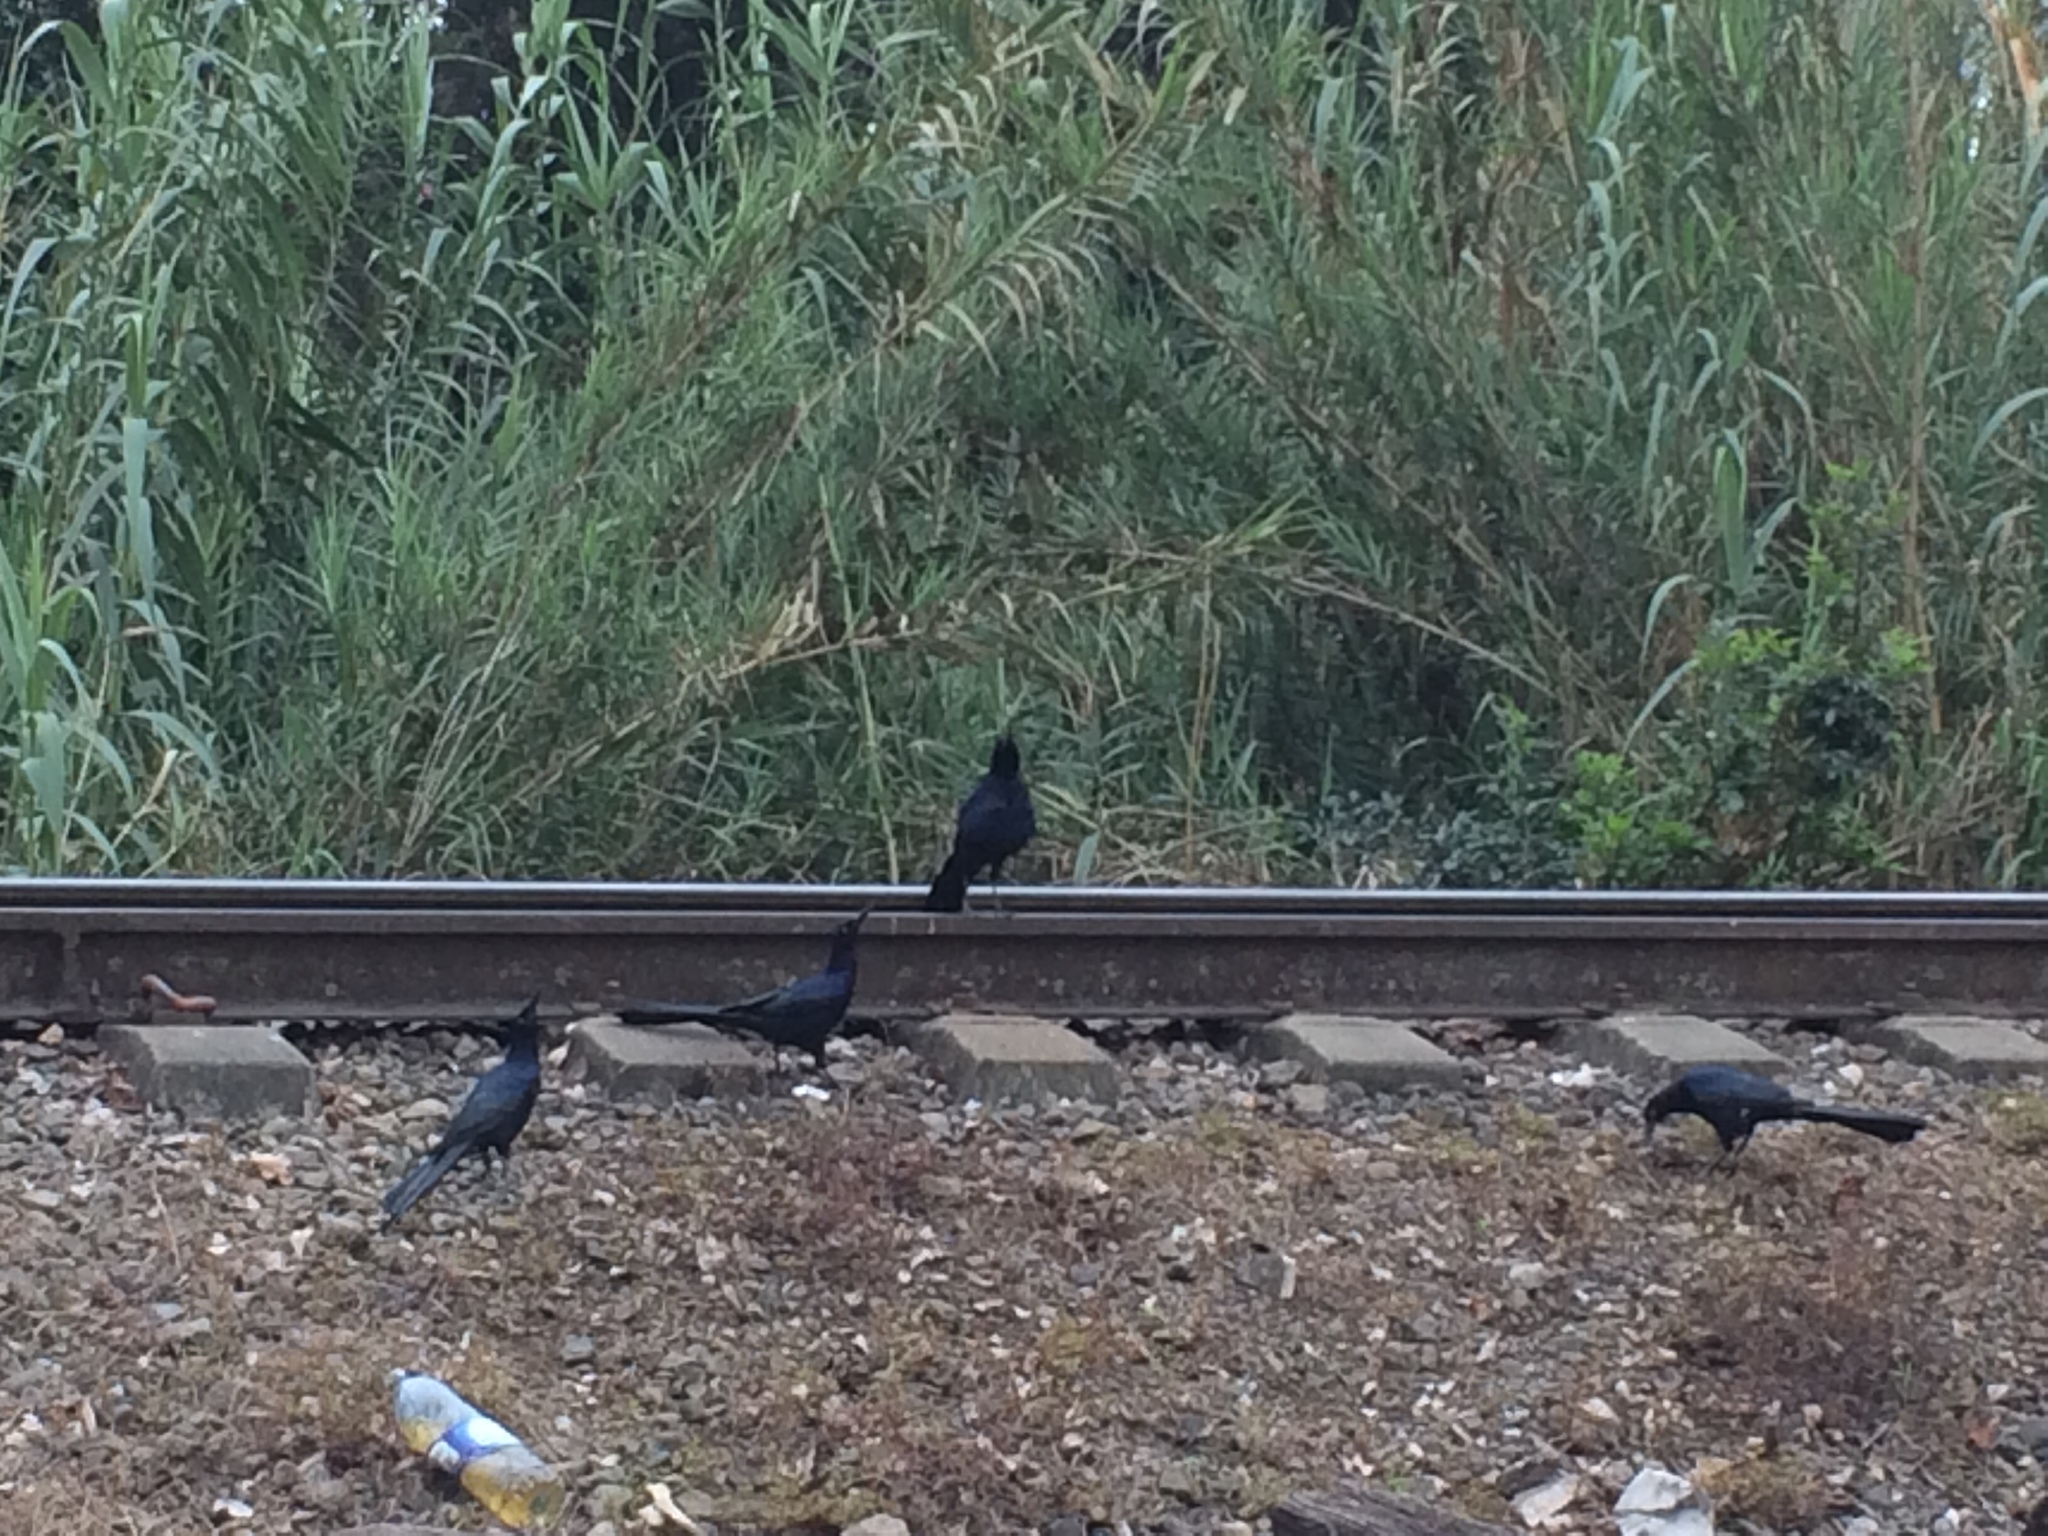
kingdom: Animalia
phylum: Chordata
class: Aves
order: Passeriformes
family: Icteridae
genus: Quiscalus
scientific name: Quiscalus mexicanus
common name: Great-tailed grackle
